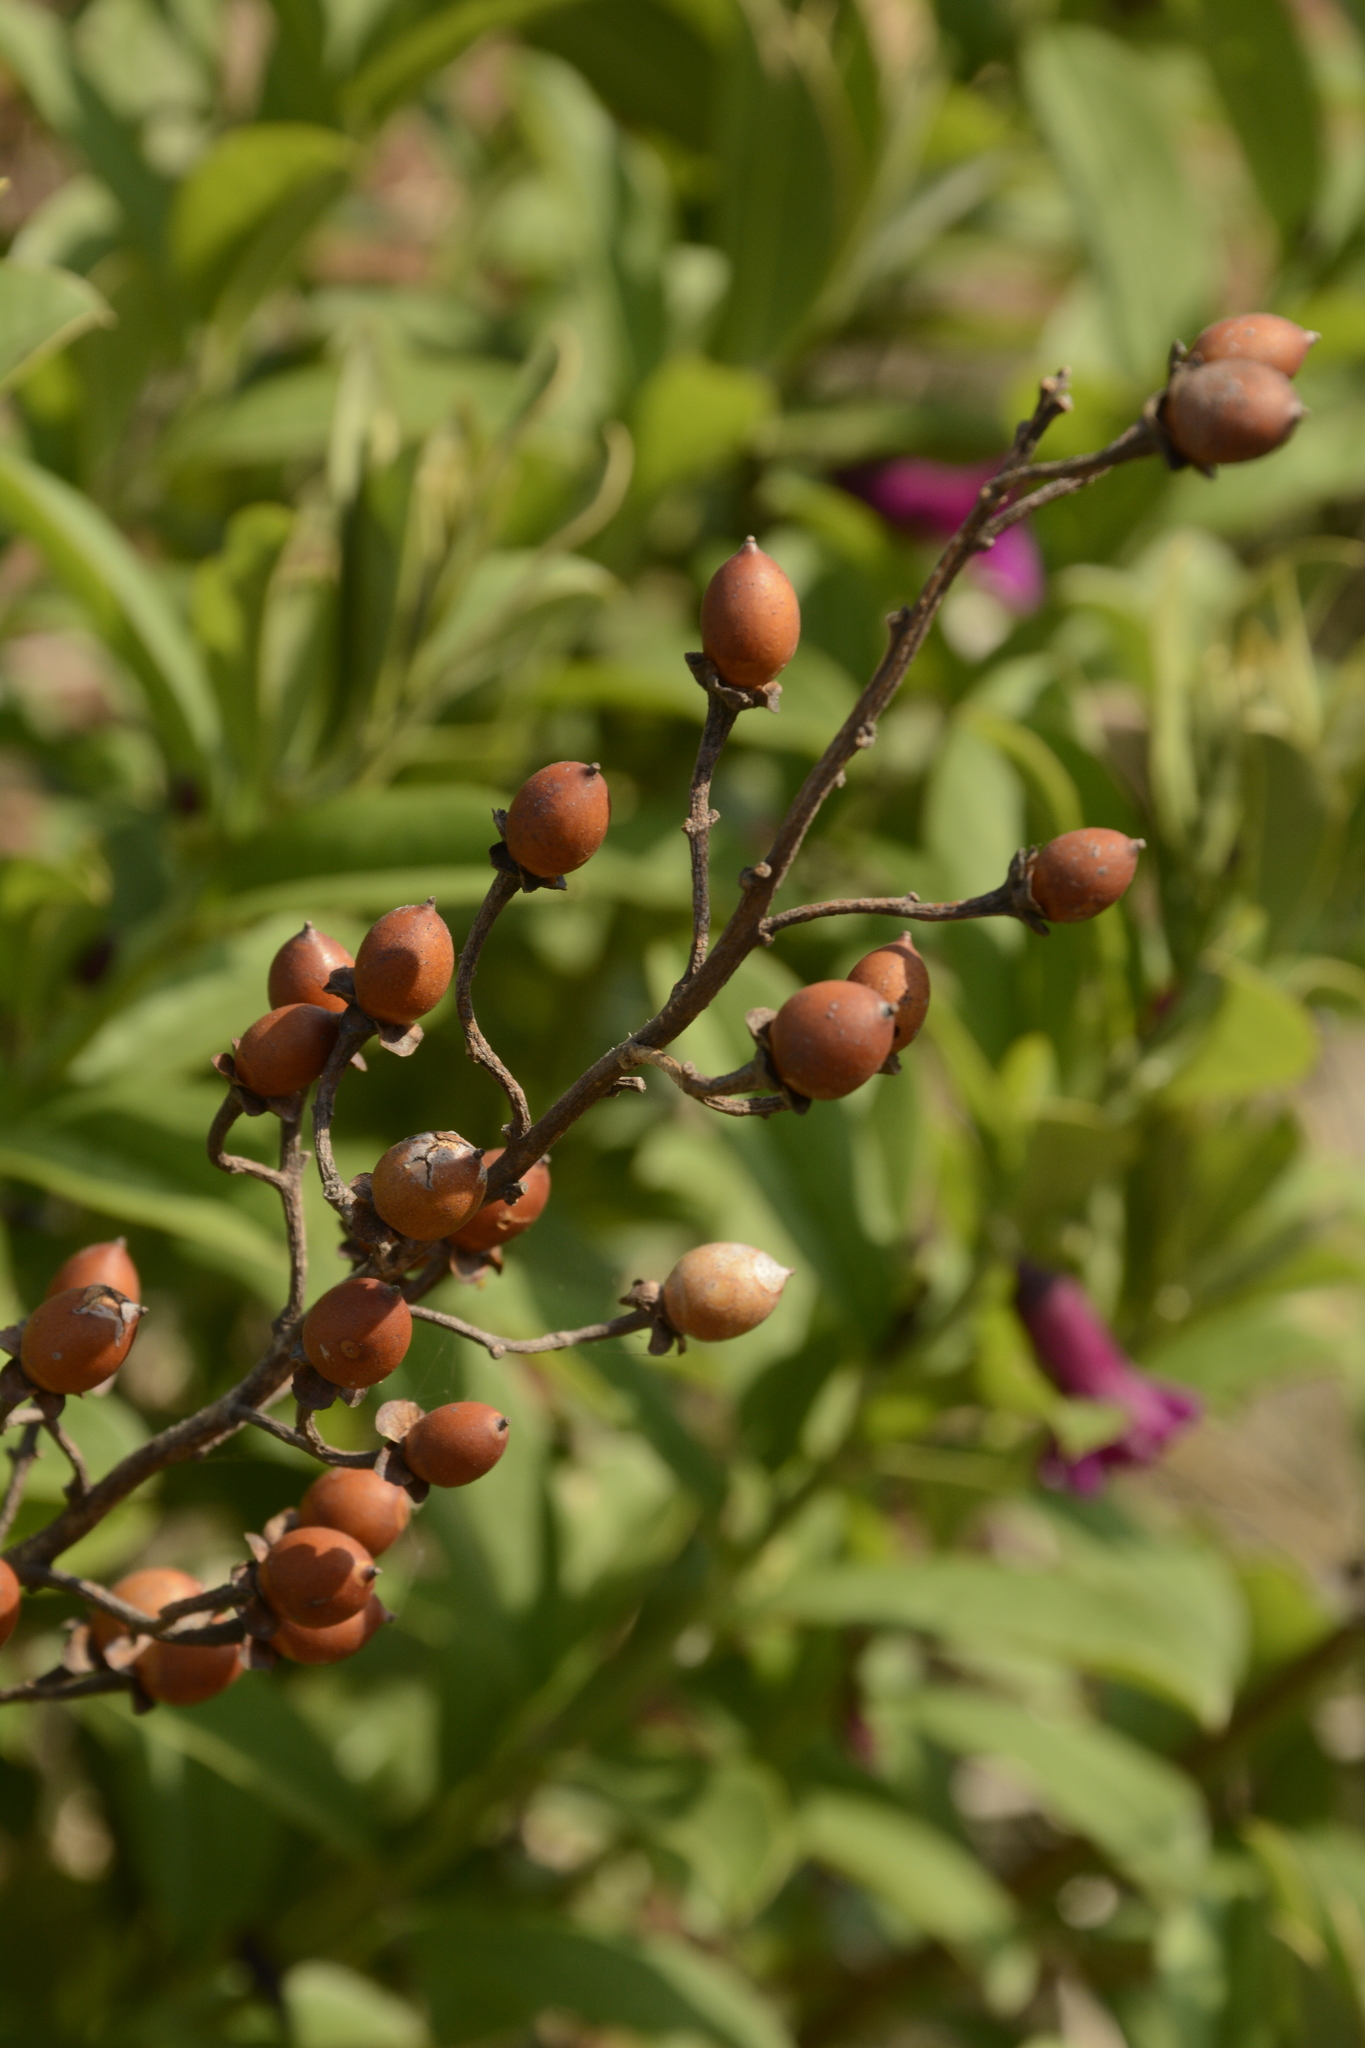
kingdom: Plantae
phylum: Tracheophyta
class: Magnoliopsida
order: Solanales
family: Convolvulaceae
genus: Argyreia
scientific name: Argyreia cuneata
